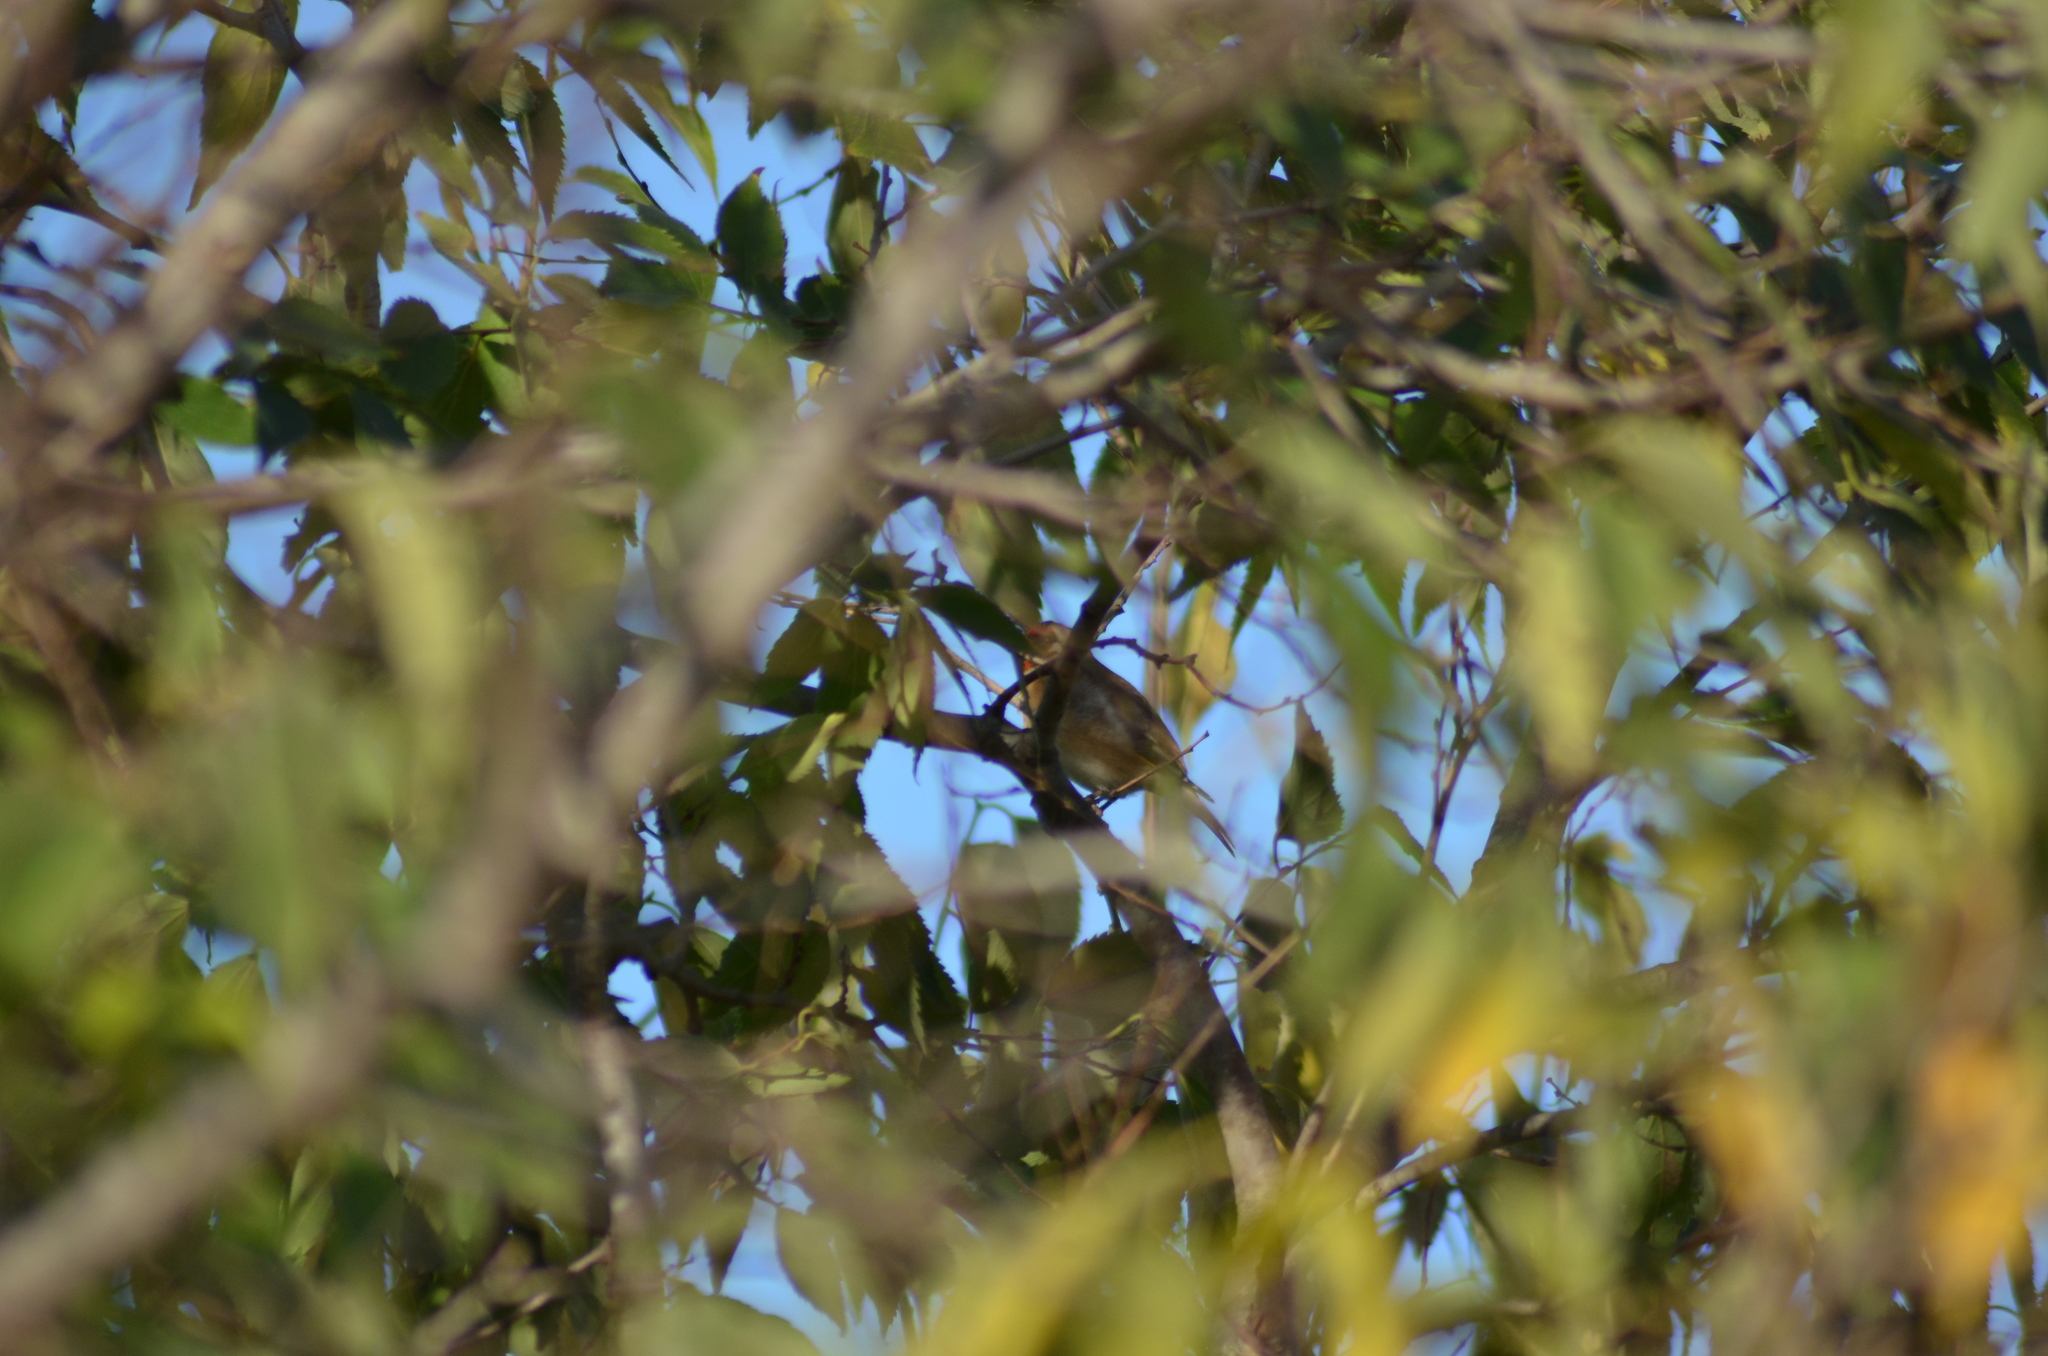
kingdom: Animalia
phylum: Chordata
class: Aves
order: Passeriformes
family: Fringillidae
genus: Carduelis
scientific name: Carduelis carduelis
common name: European goldfinch
